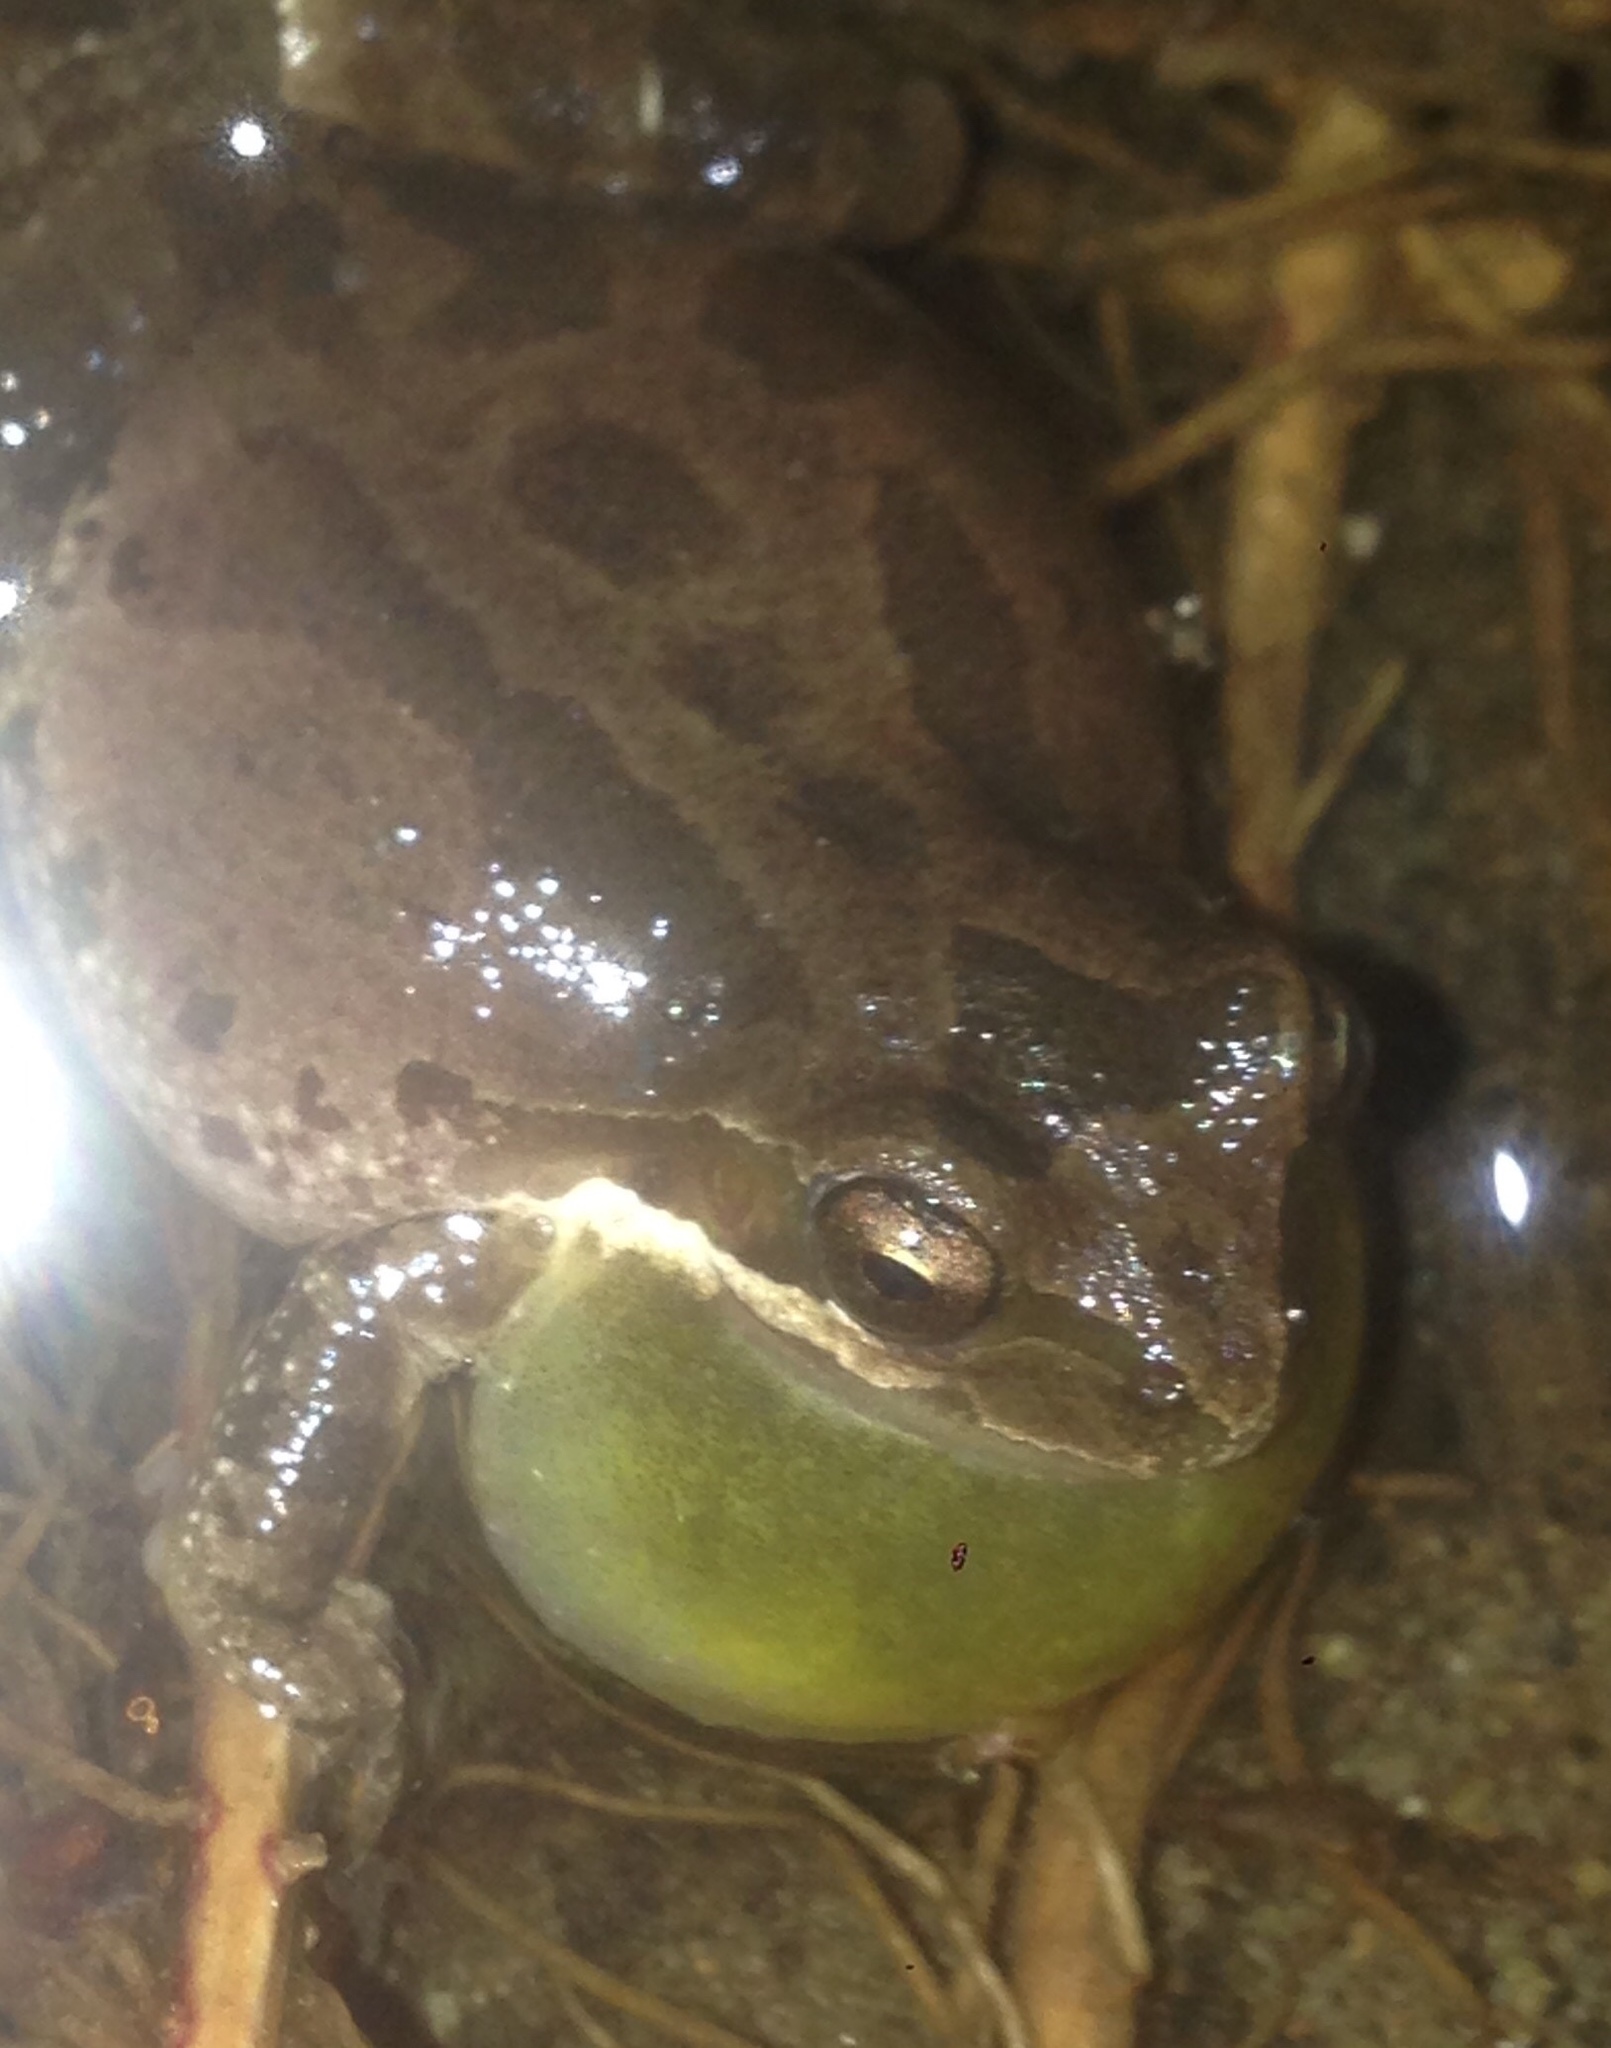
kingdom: Animalia
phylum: Chordata
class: Amphibia
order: Anura
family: Hylidae
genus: Pseudacris
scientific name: Pseudacris regilla
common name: Pacific chorus frog
